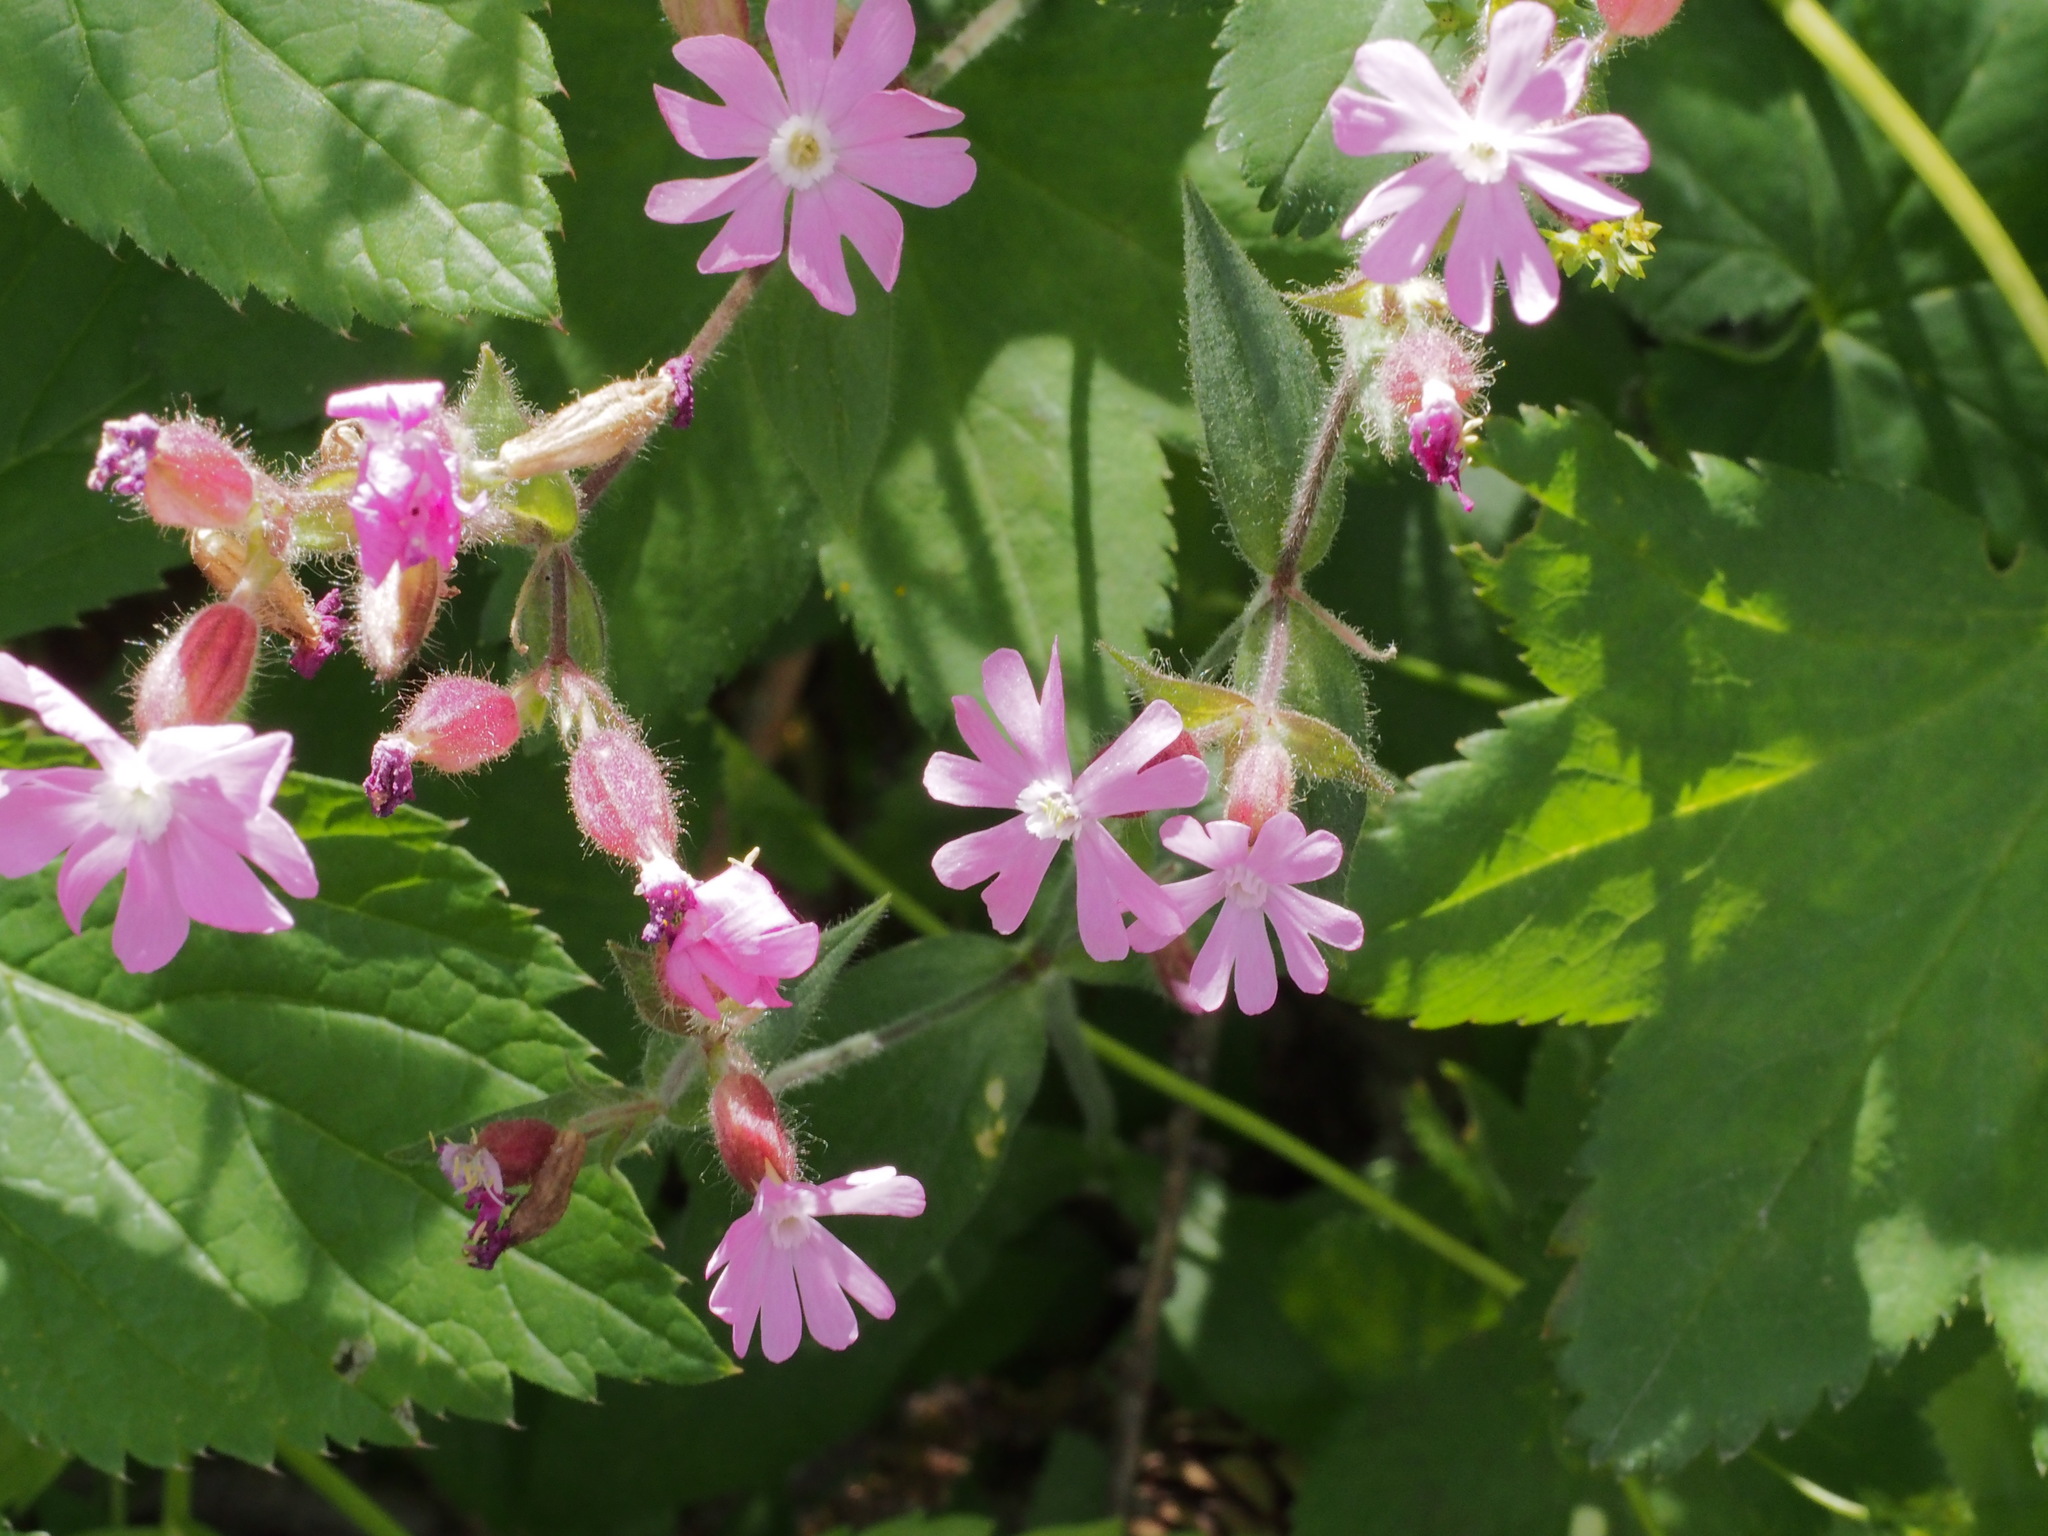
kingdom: Plantae
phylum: Tracheophyta
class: Magnoliopsida
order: Caryophyllales
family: Caryophyllaceae
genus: Silene
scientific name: Silene dioica
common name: Red campion
